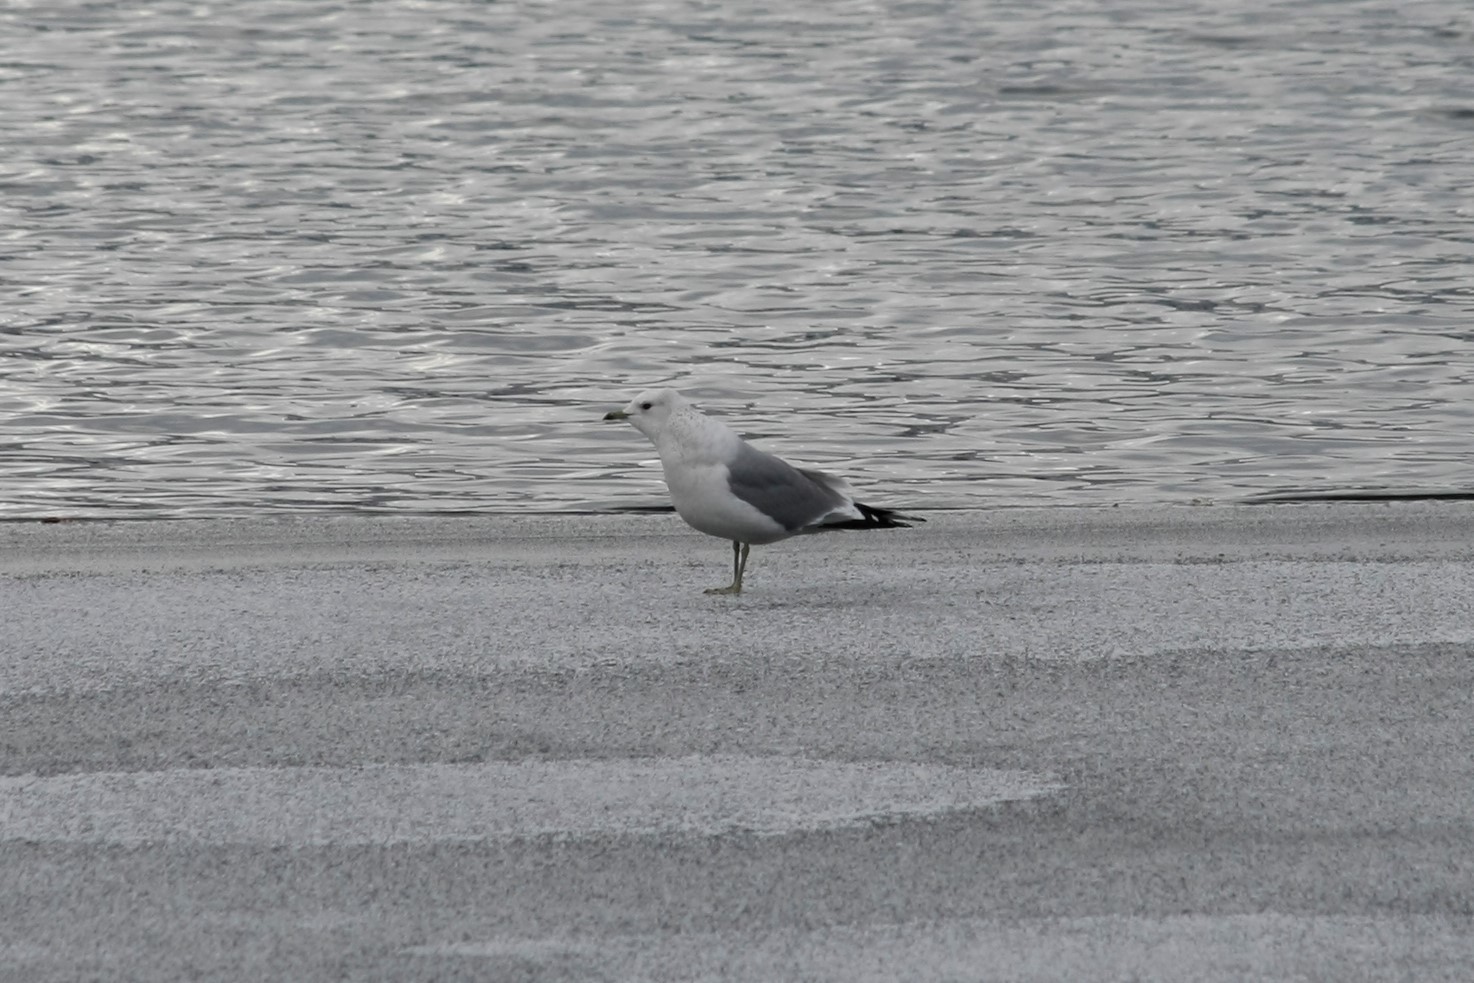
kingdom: Animalia
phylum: Chordata
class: Aves
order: Charadriiformes
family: Laridae
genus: Larus
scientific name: Larus canus
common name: Mew gull
